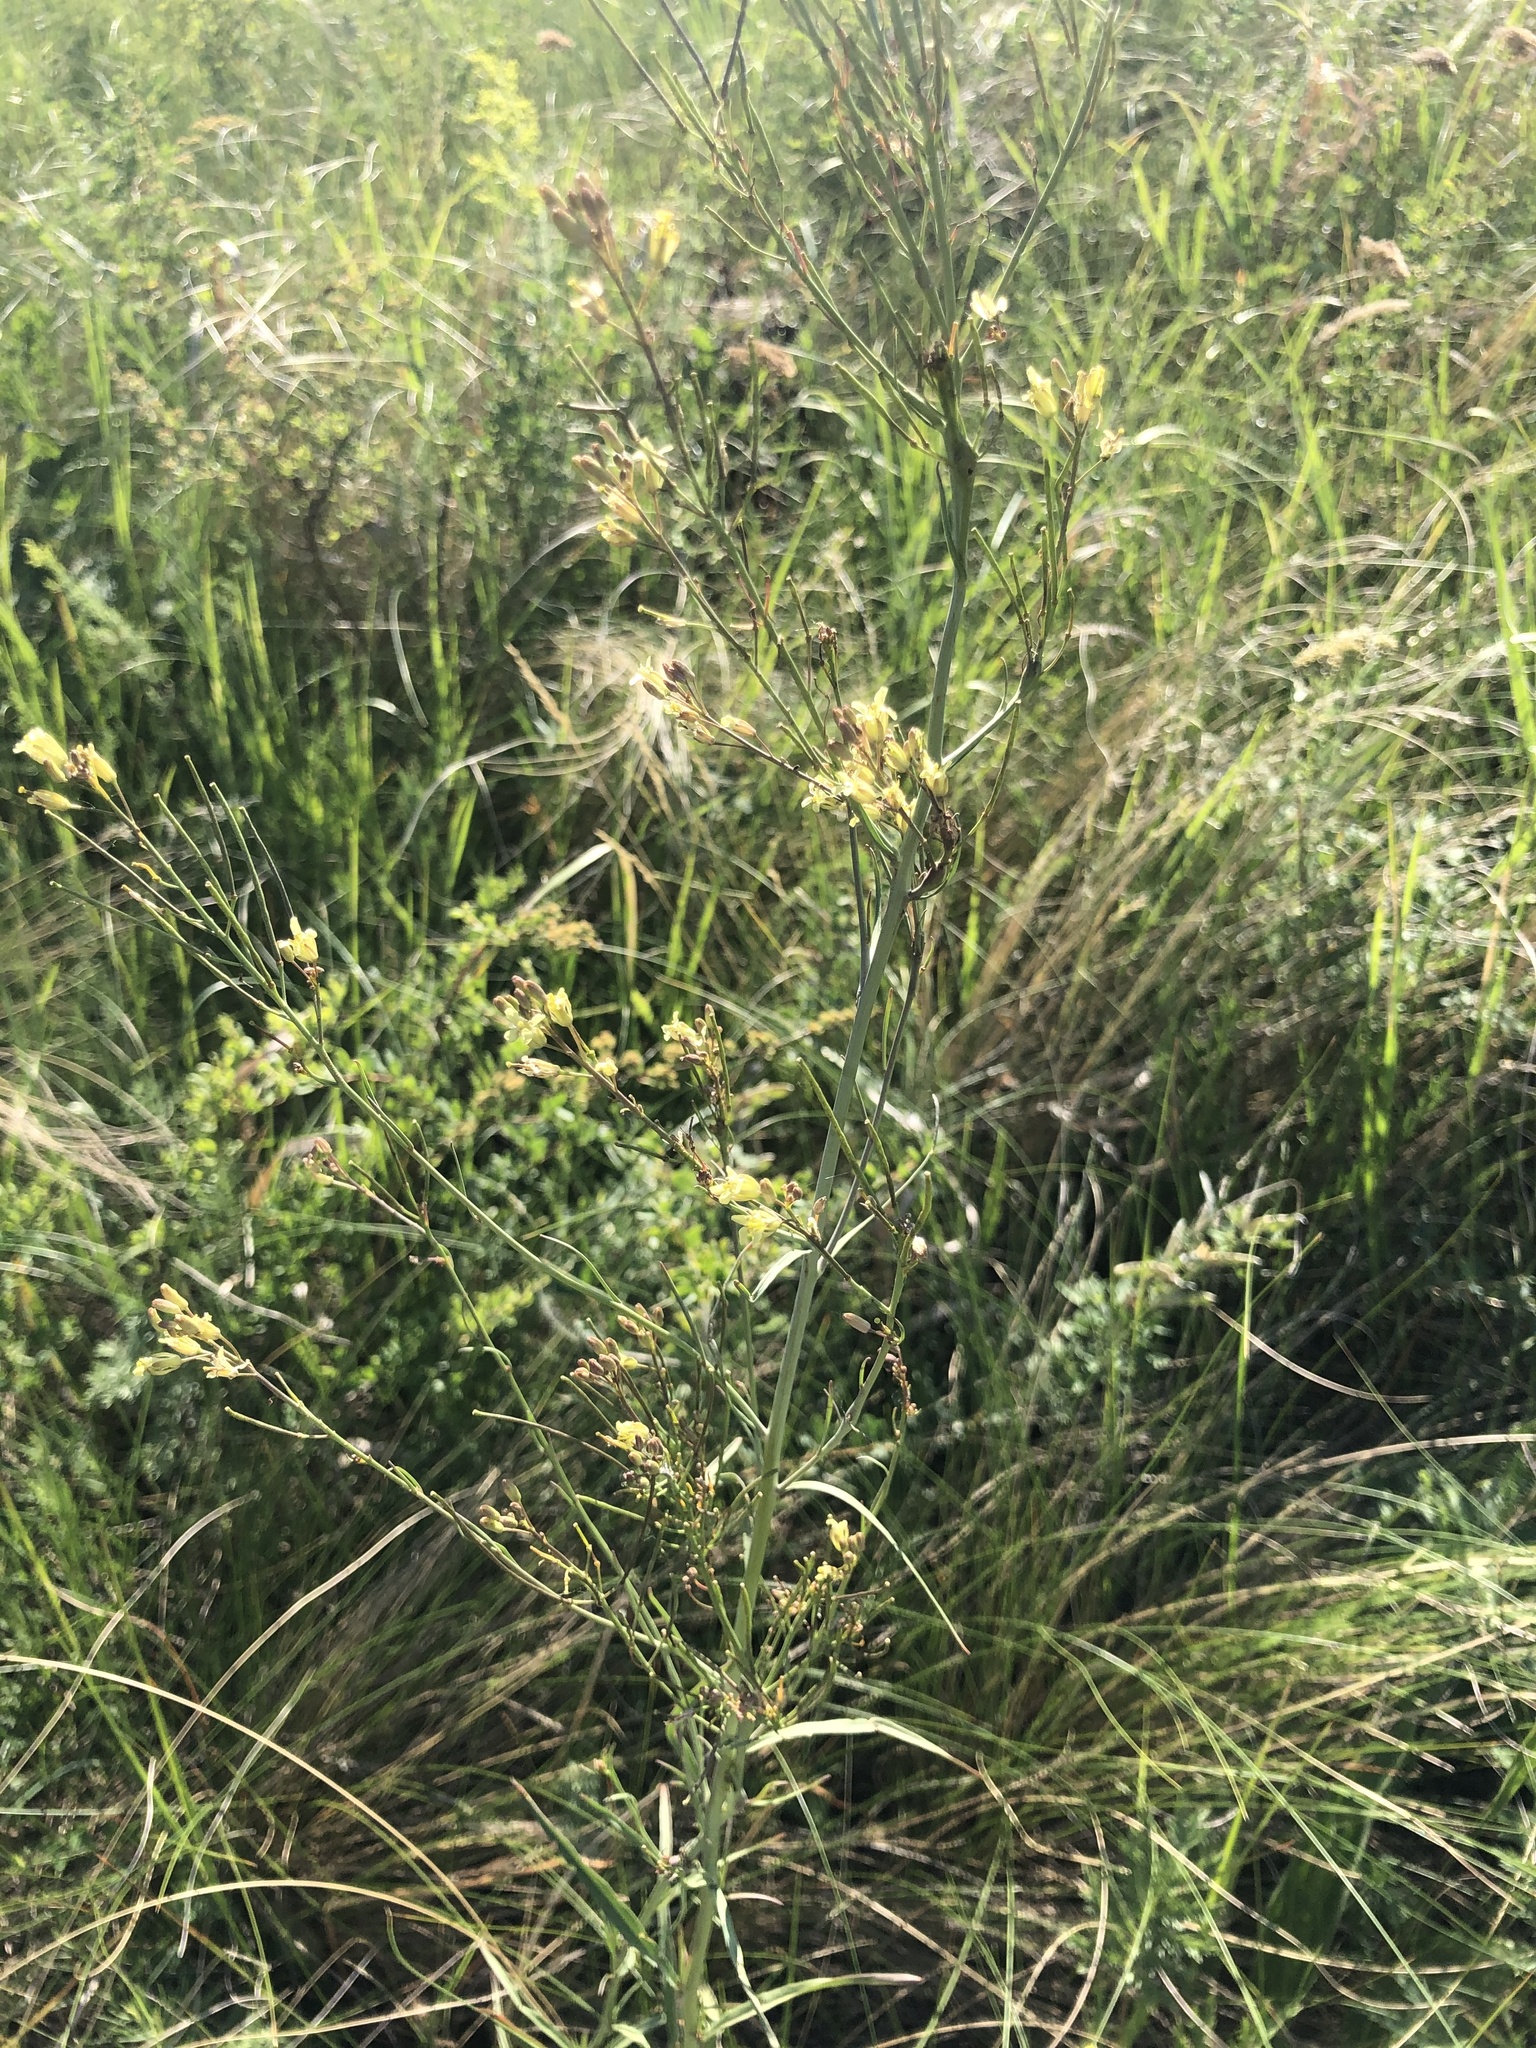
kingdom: Plantae
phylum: Tracheophyta
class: Magnoliopsida
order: Brassicales
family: Brassicaceae
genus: Sisymbrium
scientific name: Sisymbrium polymorphum
